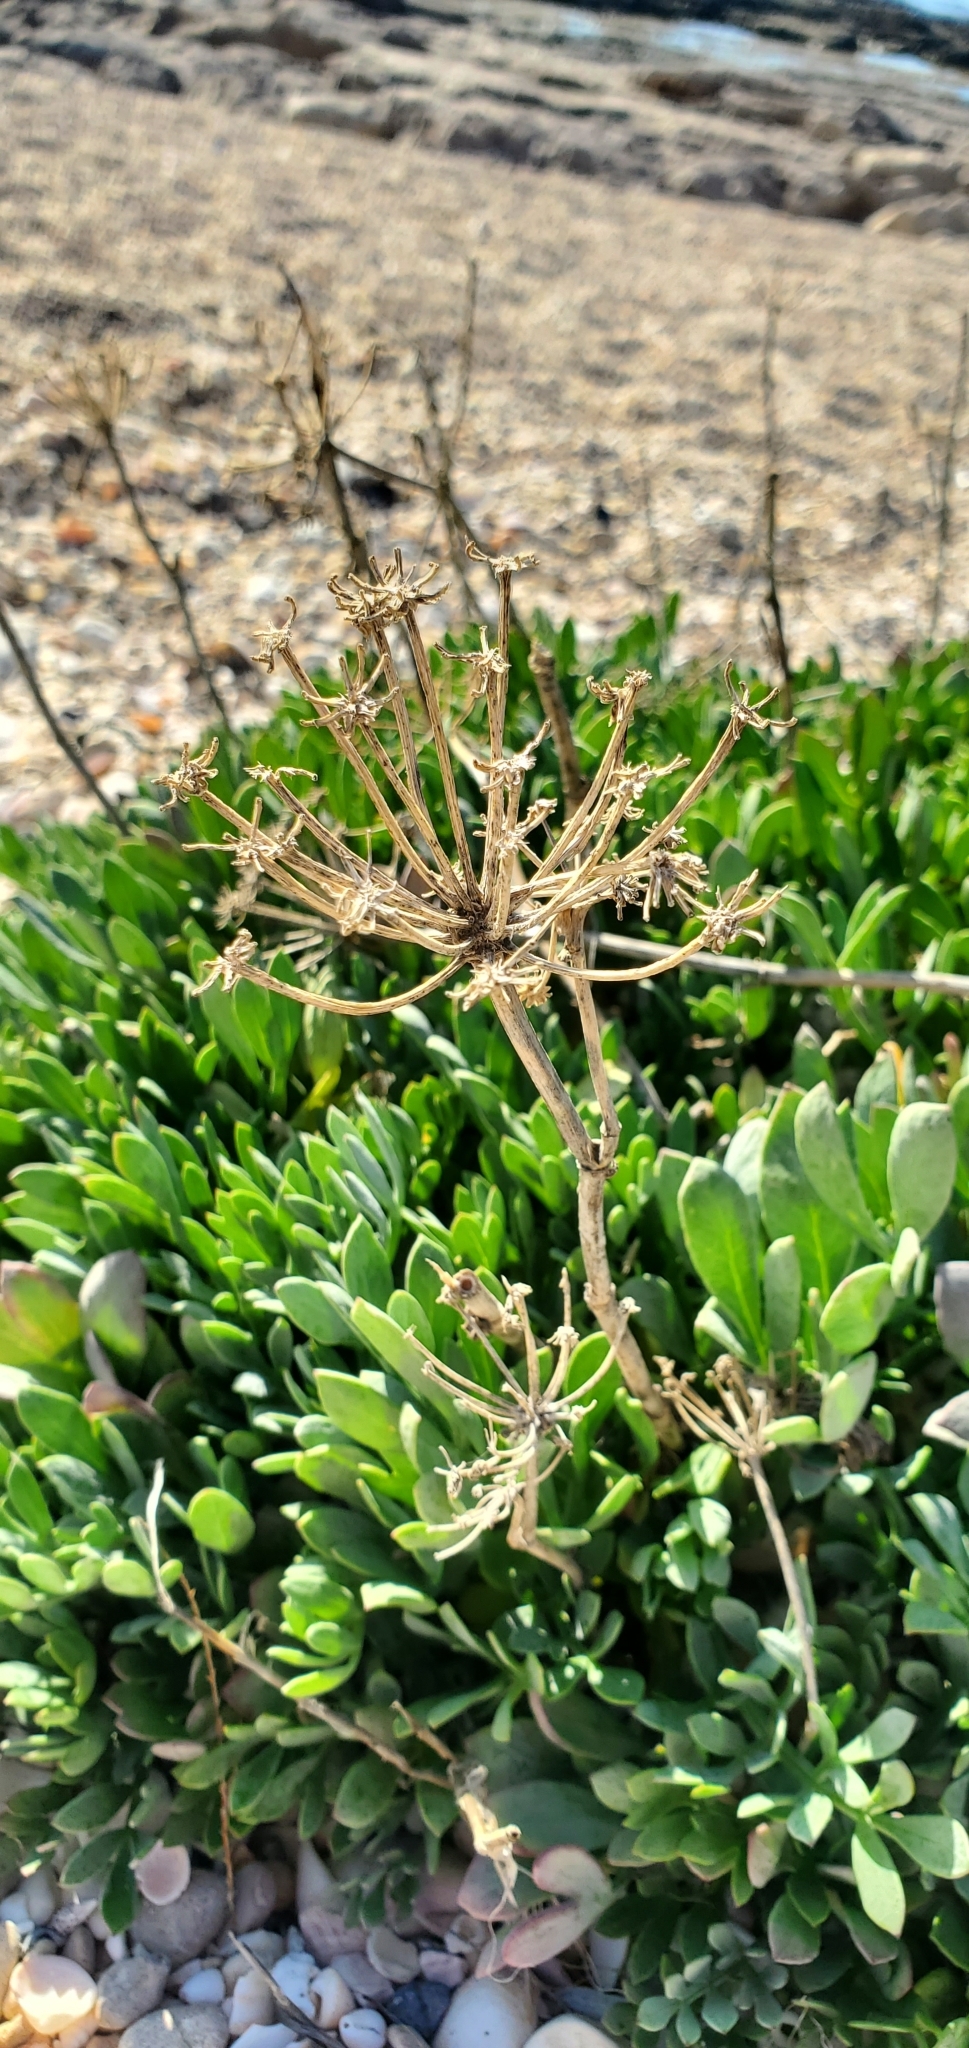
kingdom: Plantae
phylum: Tracheophyta
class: Magnoliopsida
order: Apiales
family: Apiaceae
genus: Crithmum
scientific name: Crithmum maritimum
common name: Rock samphire
